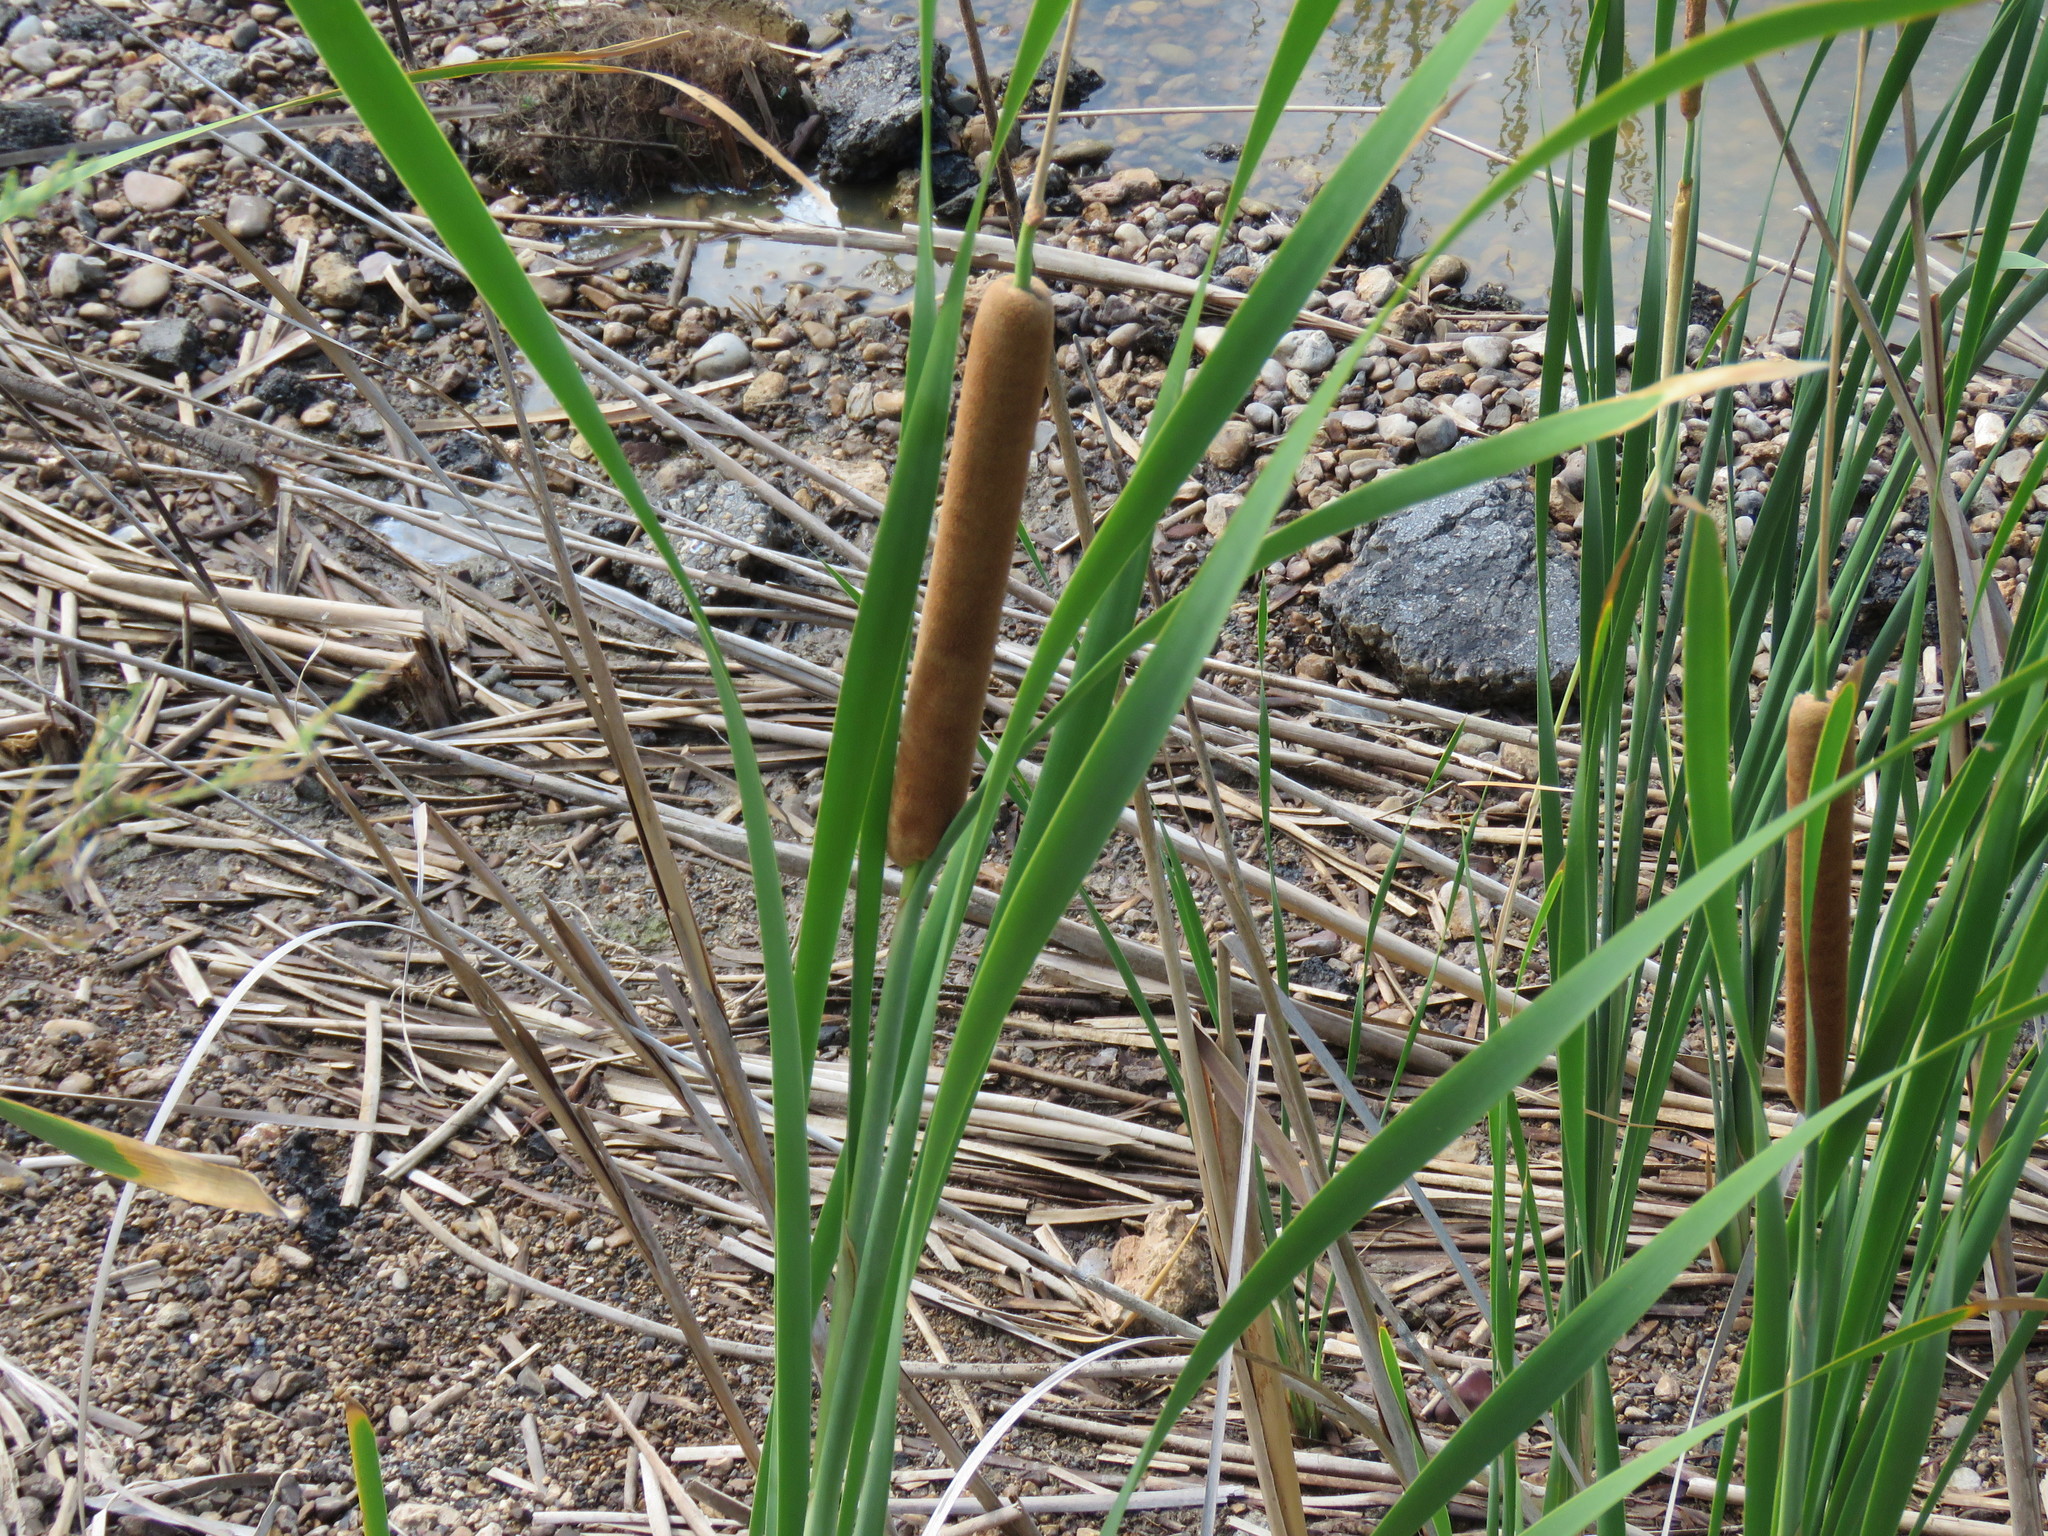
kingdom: Plantae
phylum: Tracheophyta
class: Liliopsida
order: Poales
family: Typhaceae
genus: Typha
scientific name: Typha domingensis
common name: Southern cattail
